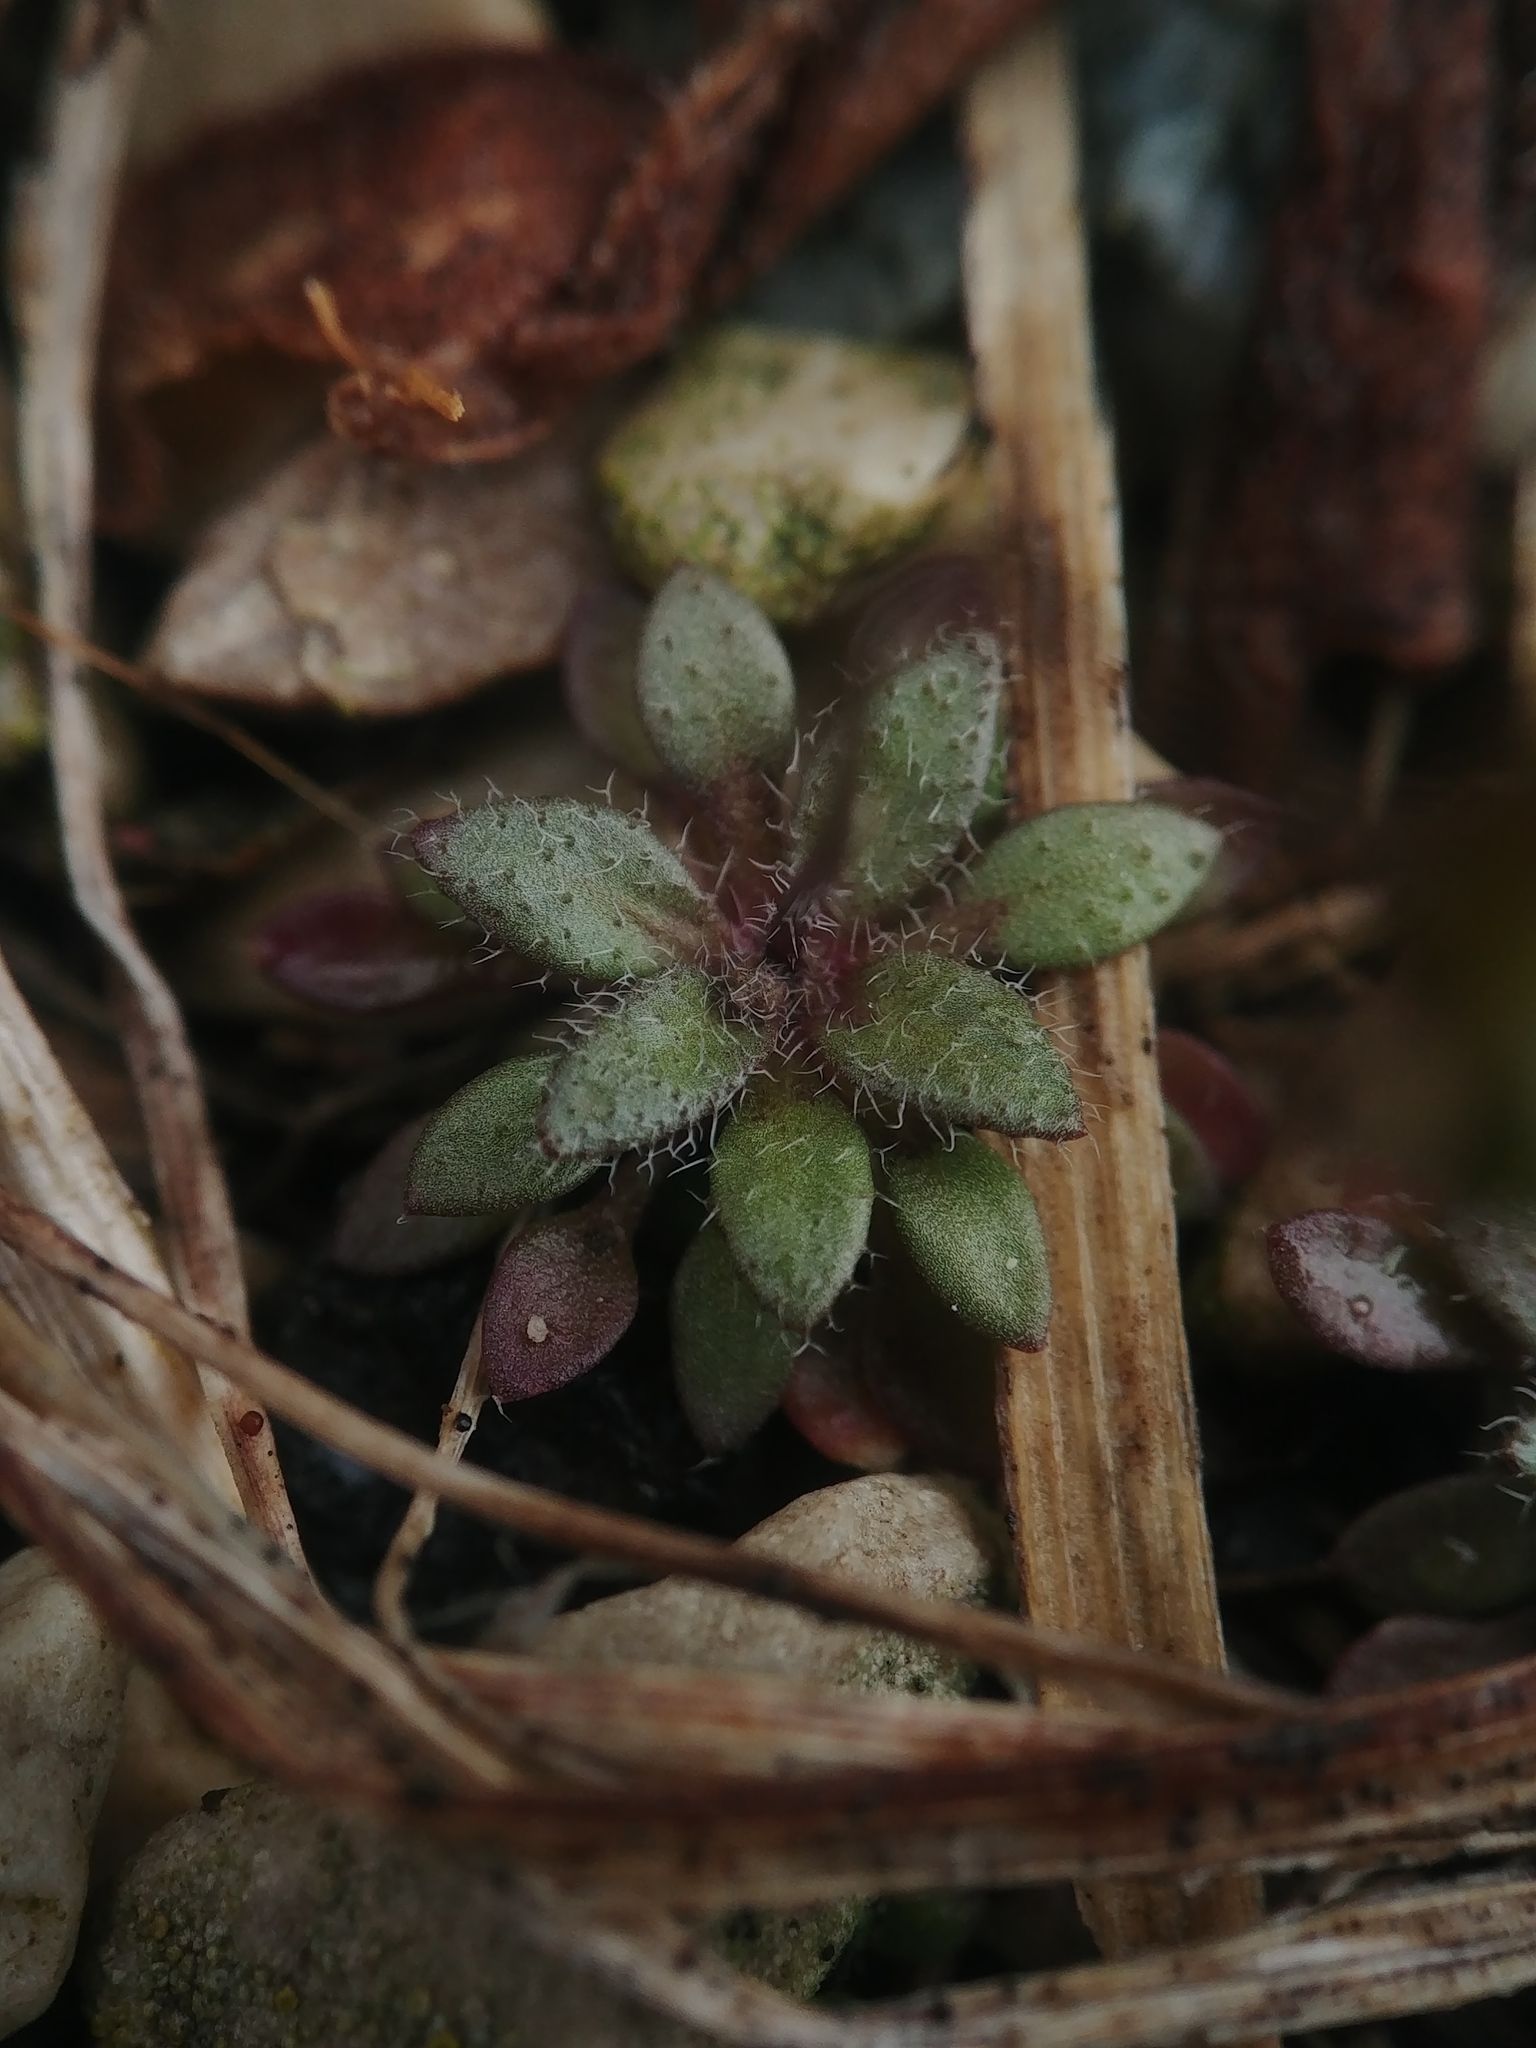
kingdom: Plantae
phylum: Tracheophyta
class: Magnoliopsida
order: Brassicales
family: Brassicaceae
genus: Draba
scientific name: Draba verna
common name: Spring draba
